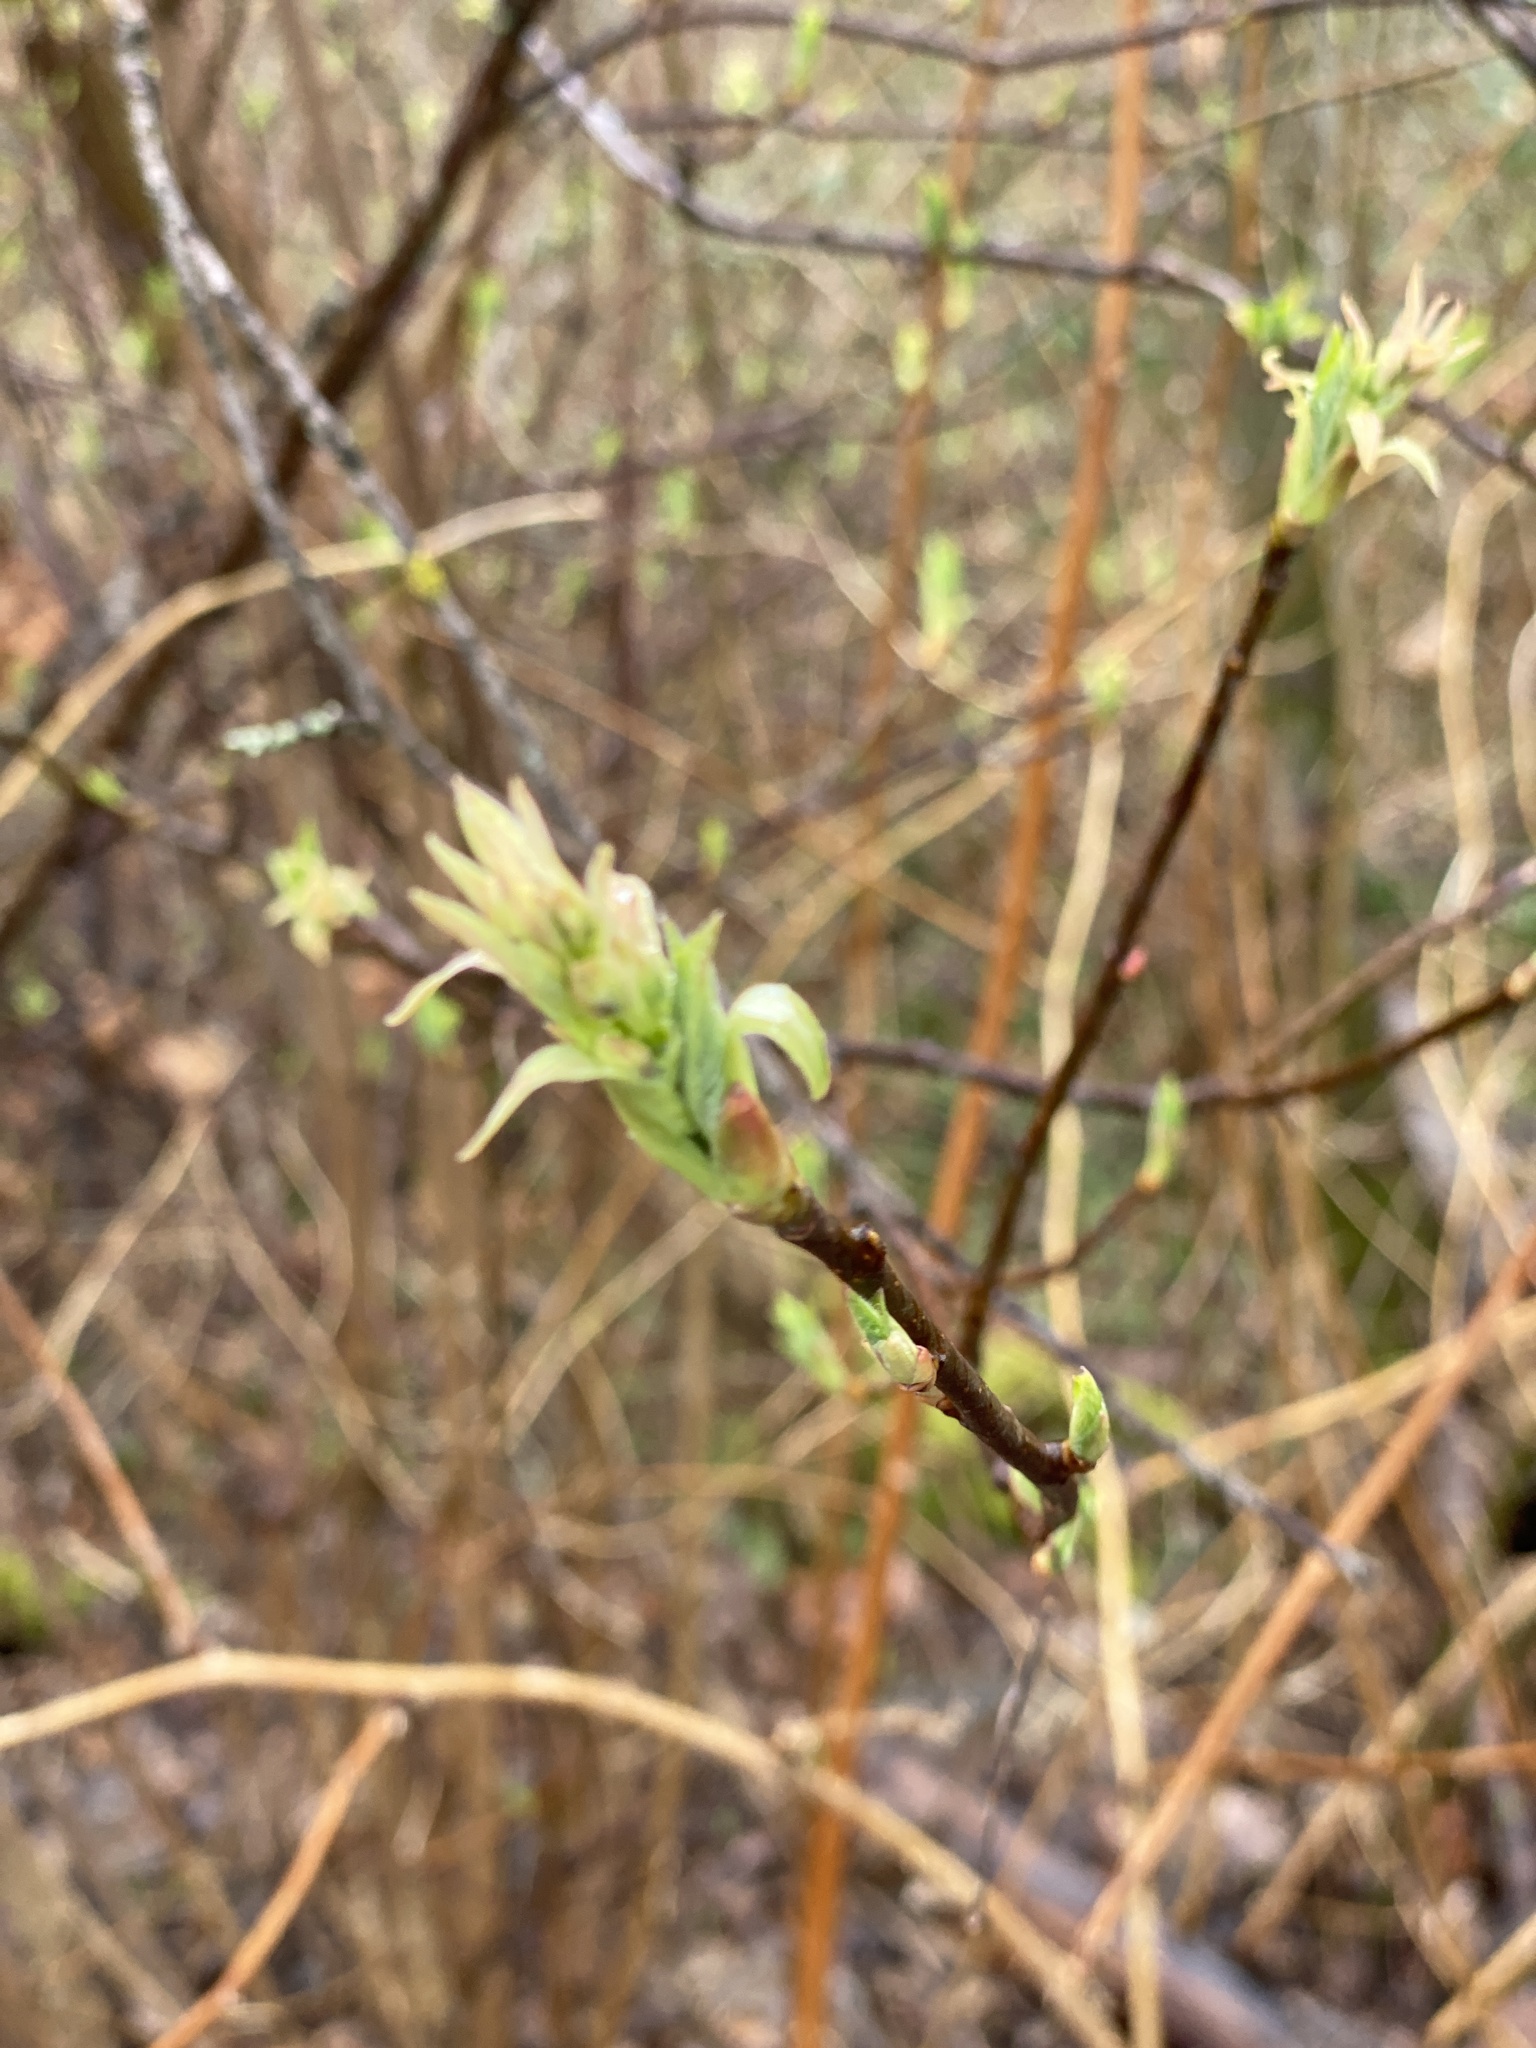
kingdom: Plantae
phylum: Tracheophyta
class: Magnoliopsida
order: Rosales
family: Rosaceae
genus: Oemleria
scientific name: Oemleria cerasiformis
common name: Osoberry
